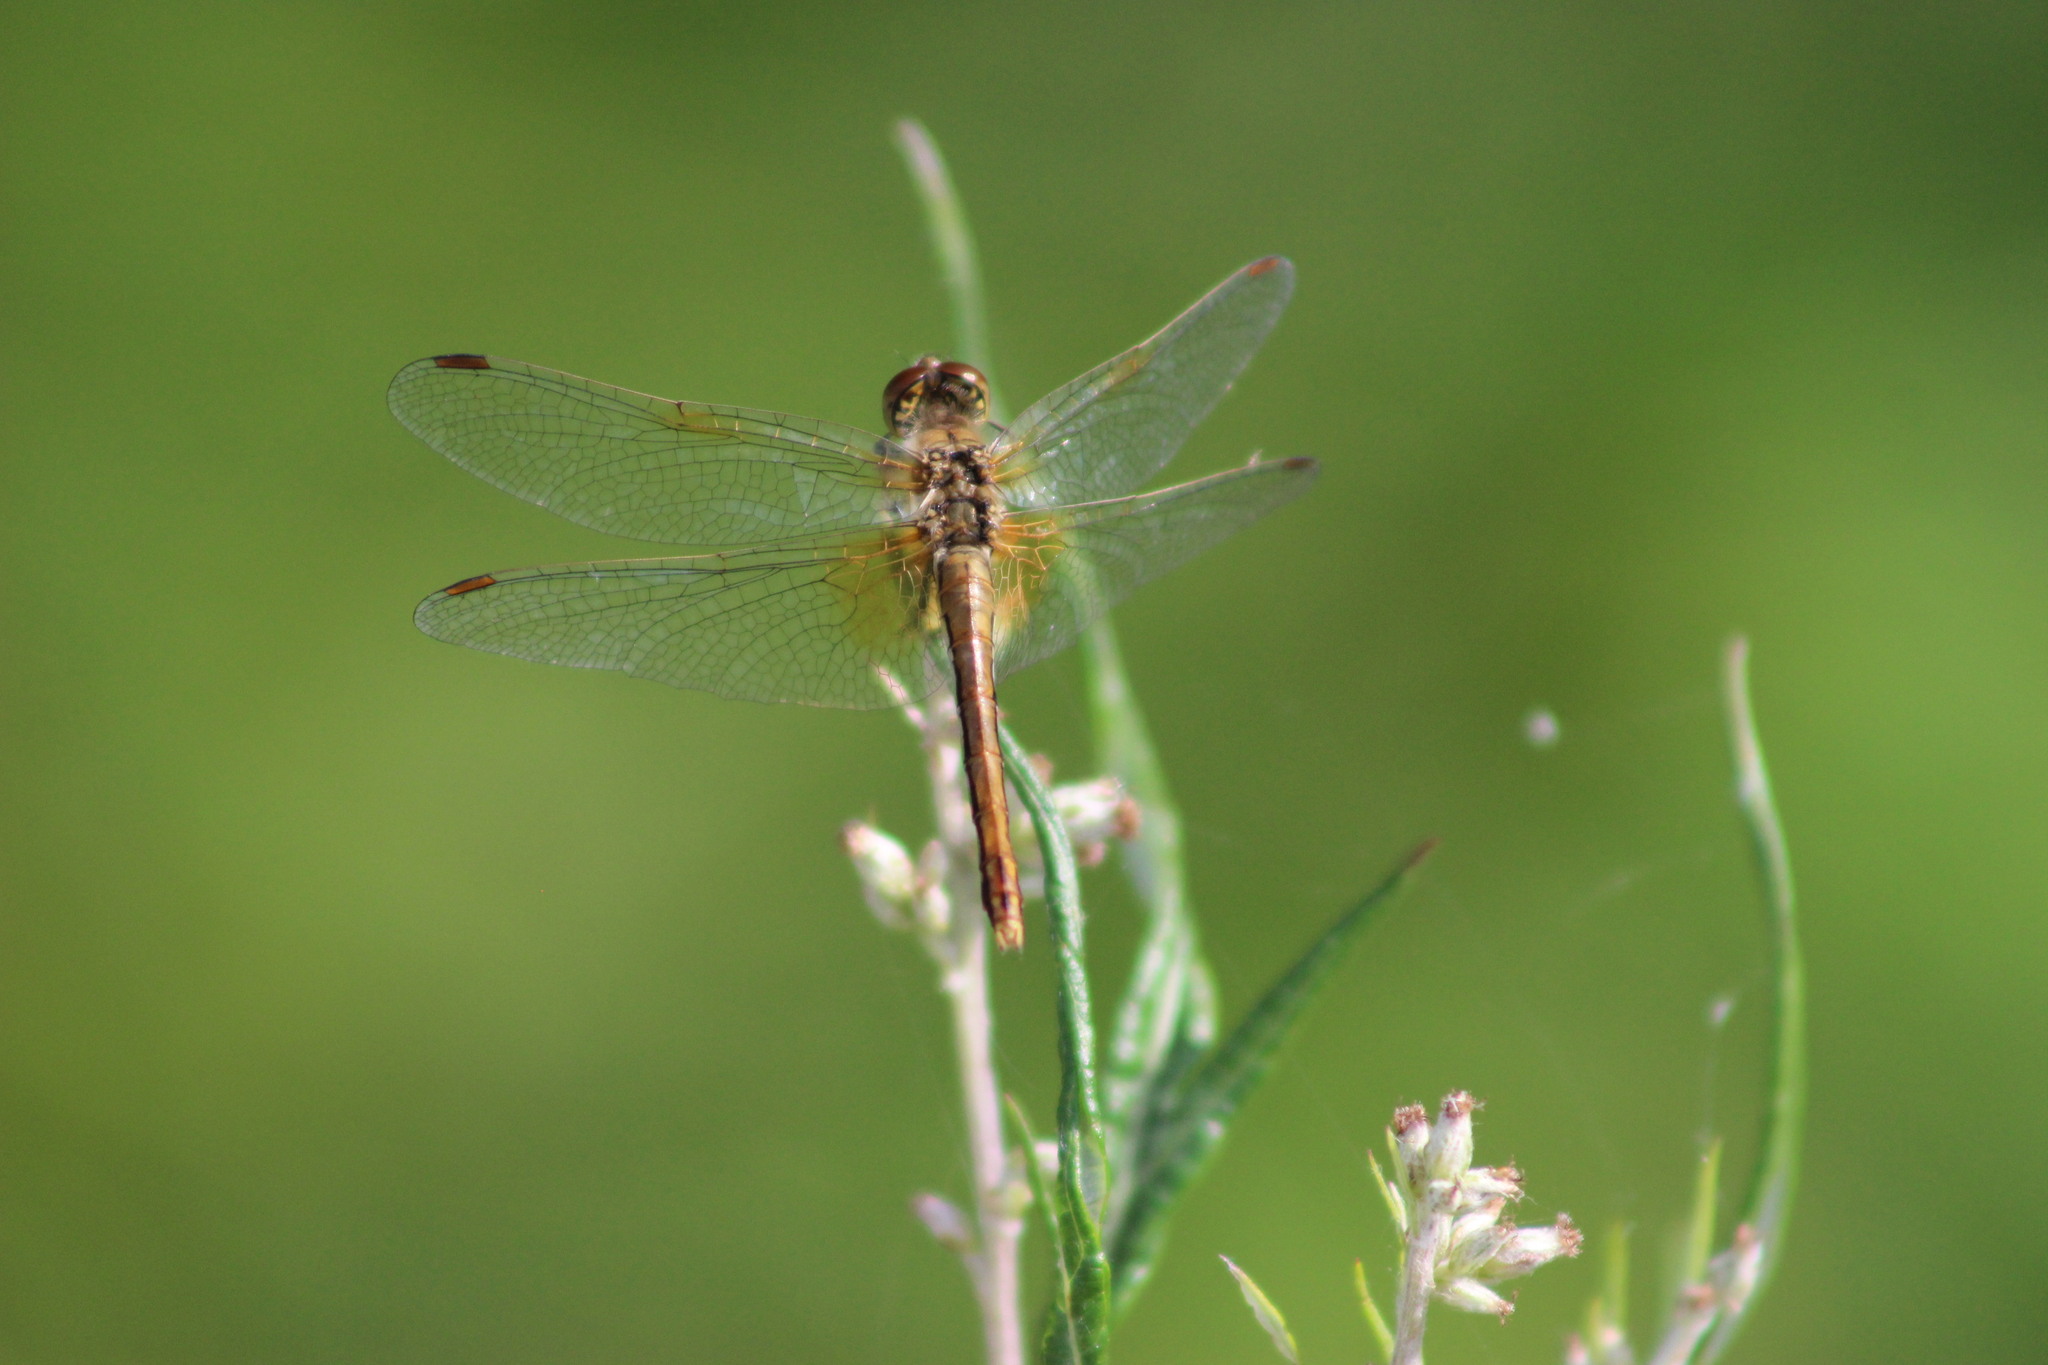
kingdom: Animalia
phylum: Arthropoda
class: Insecta
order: Odonata
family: Libellulidae
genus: Sympetrum
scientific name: Sympetrum flaveolum
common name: Yellow-winged darter
